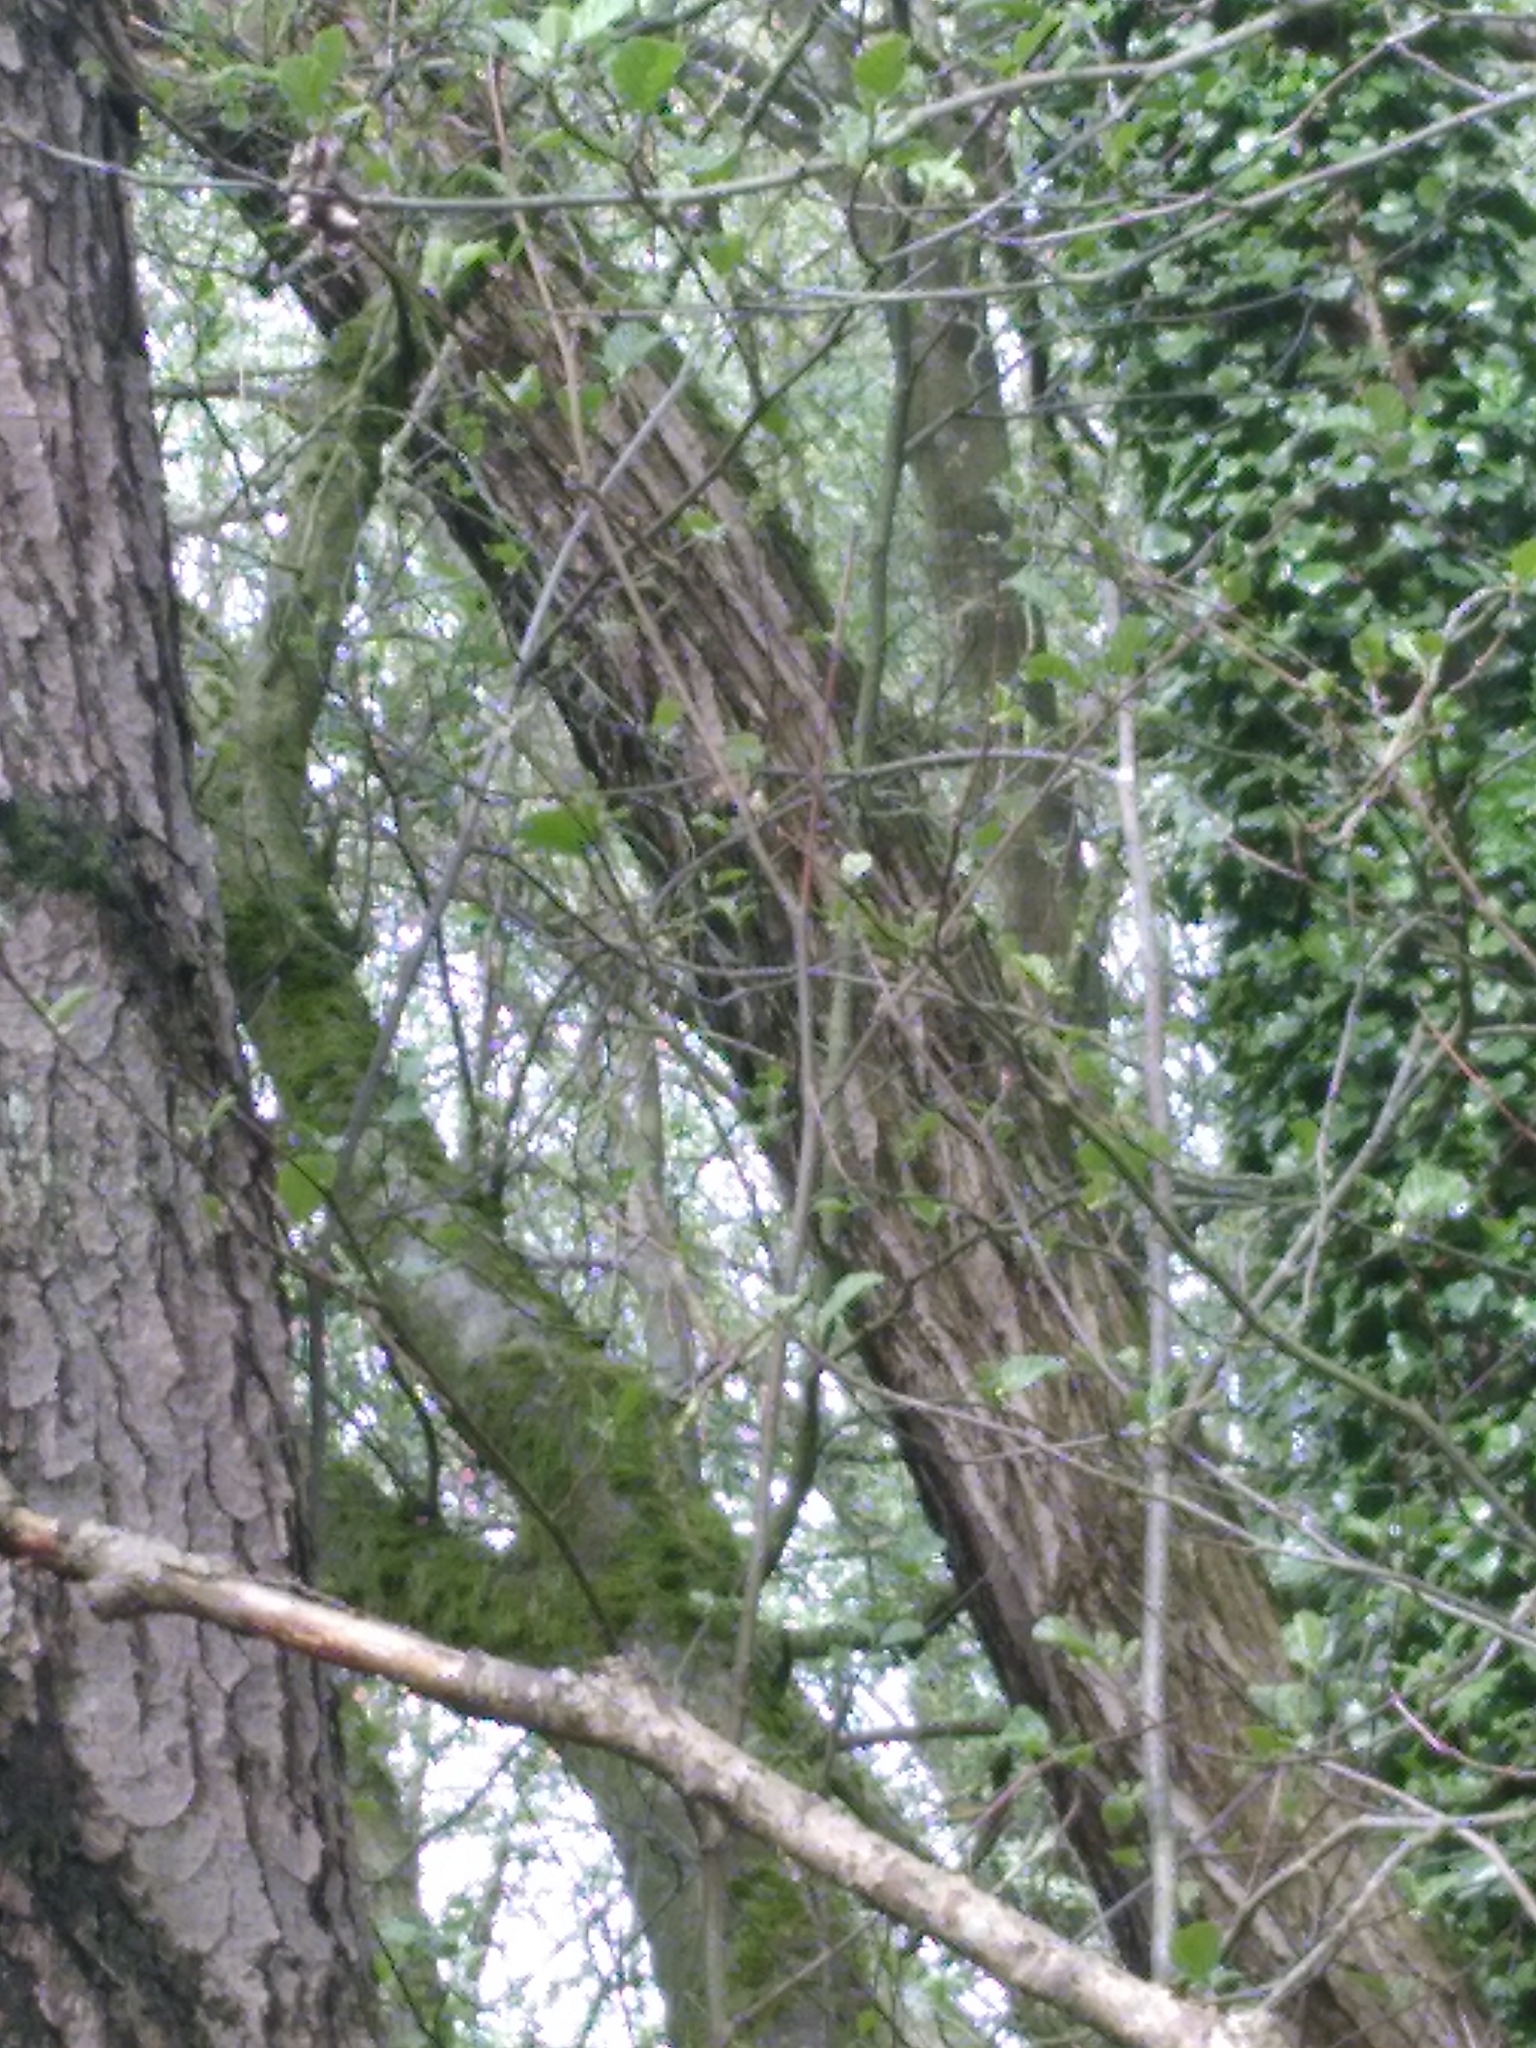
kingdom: Animalia
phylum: Chordata
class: Aves
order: Passeriformes
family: Certhiidae
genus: Certhia
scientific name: Certhia familiaris
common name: Eurasian treecreeper
